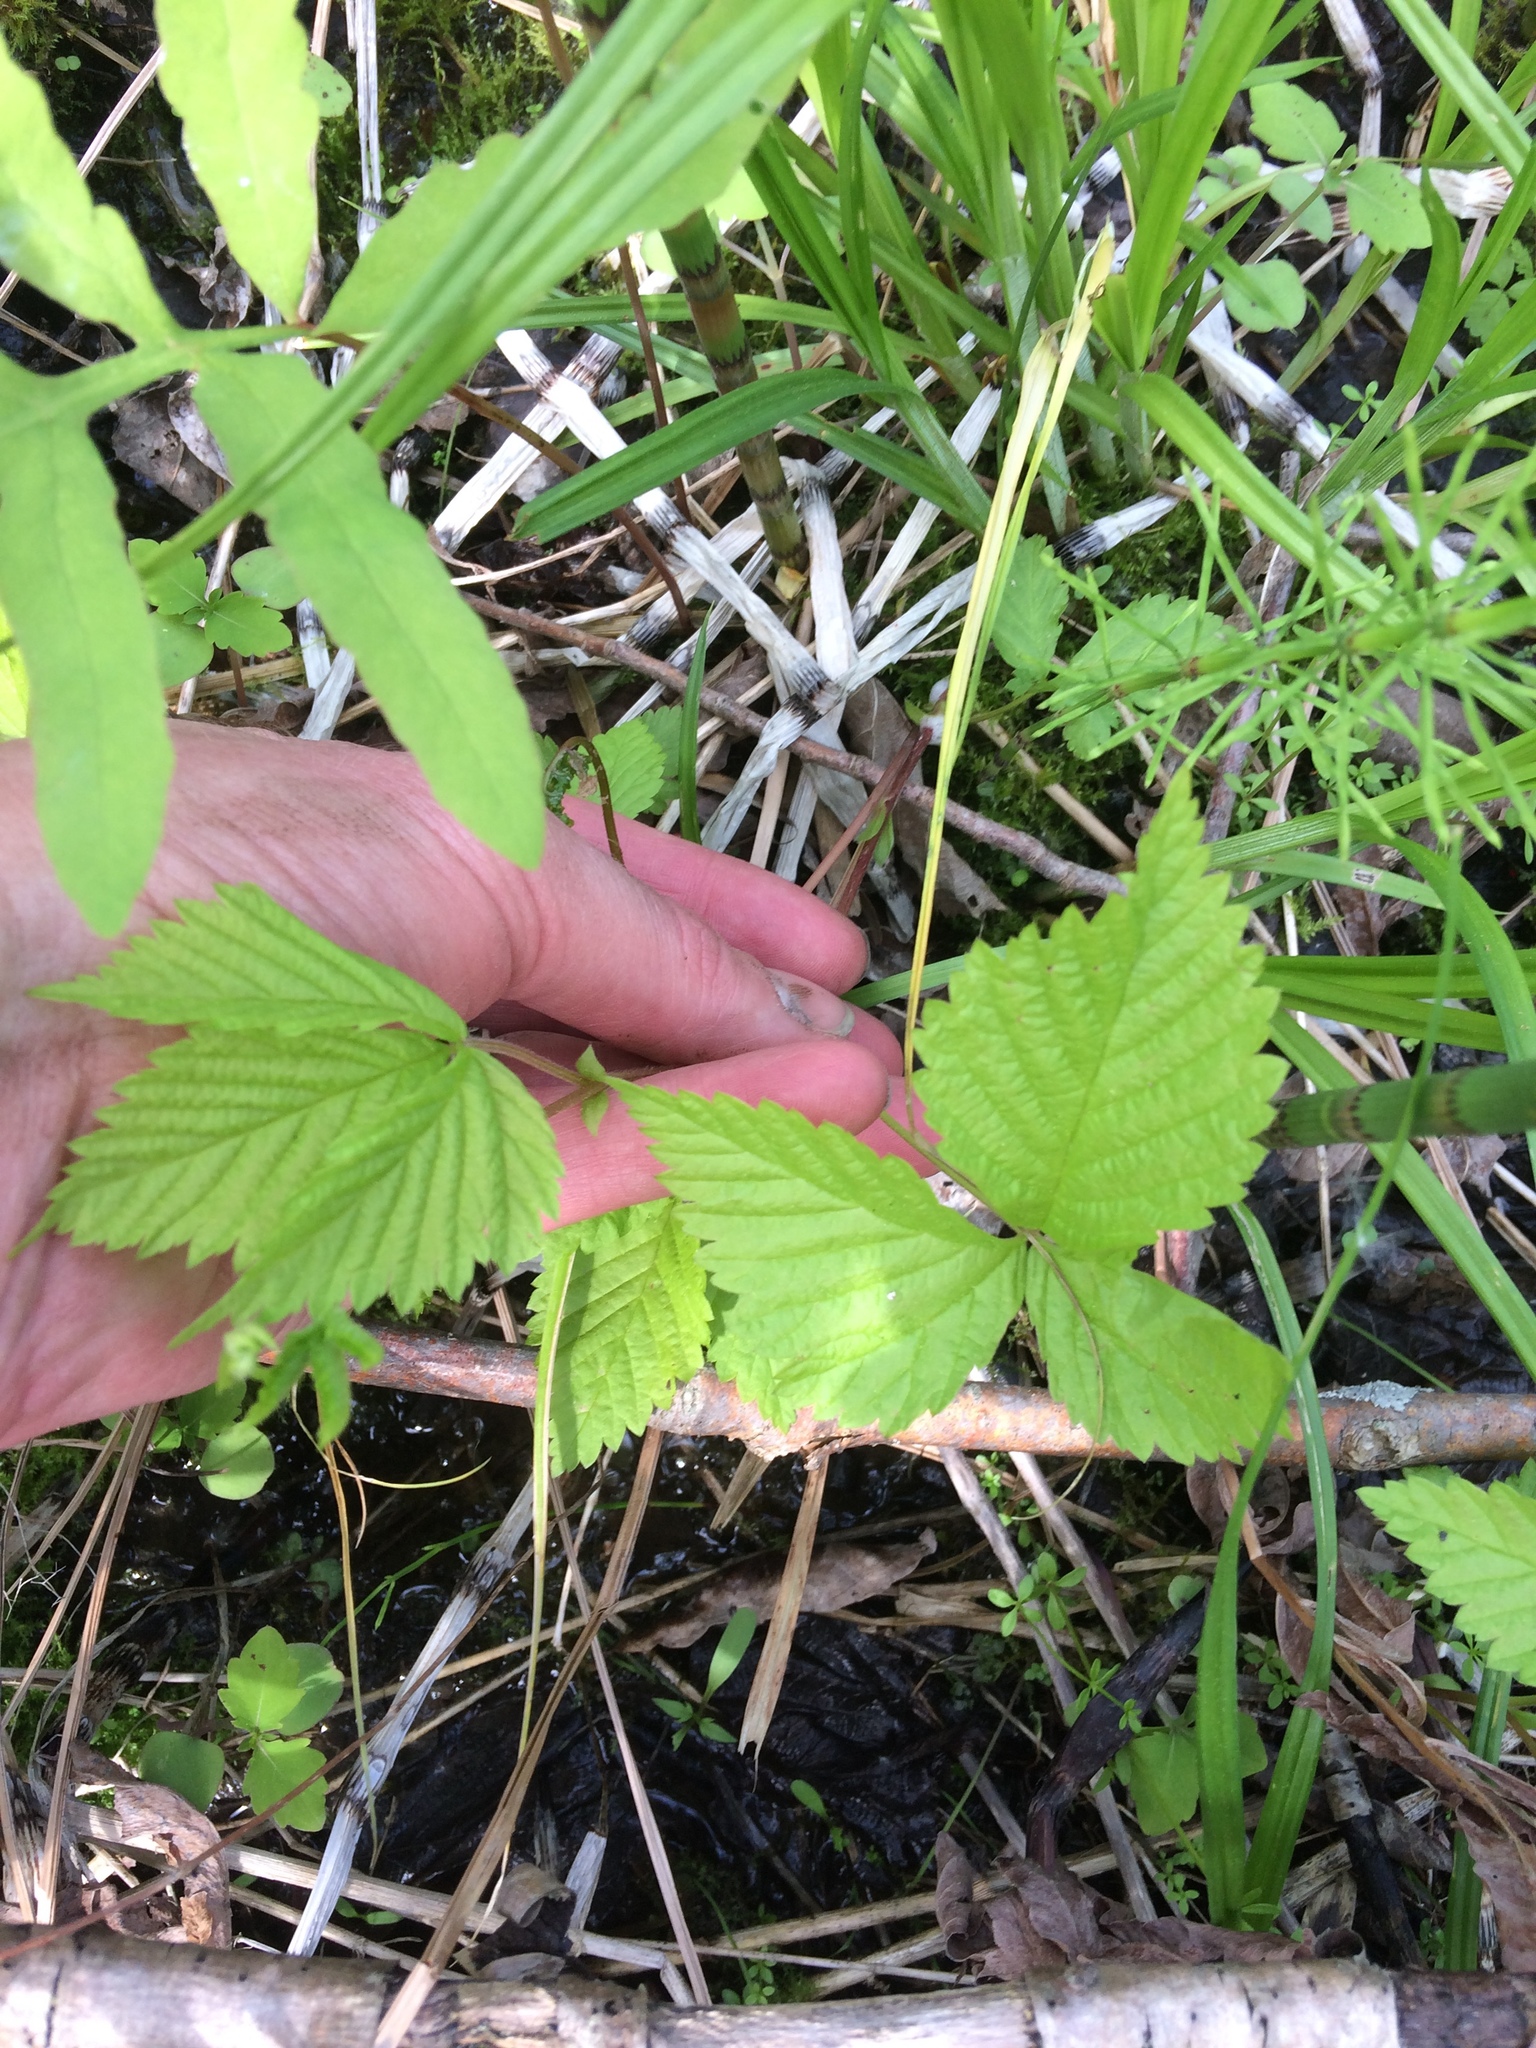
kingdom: Plantae
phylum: Tracheophyta
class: Magnoliopsida
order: Rosales
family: Rosaceae
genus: Rubus
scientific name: Rubus pubescens
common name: Dwarf raspberry
